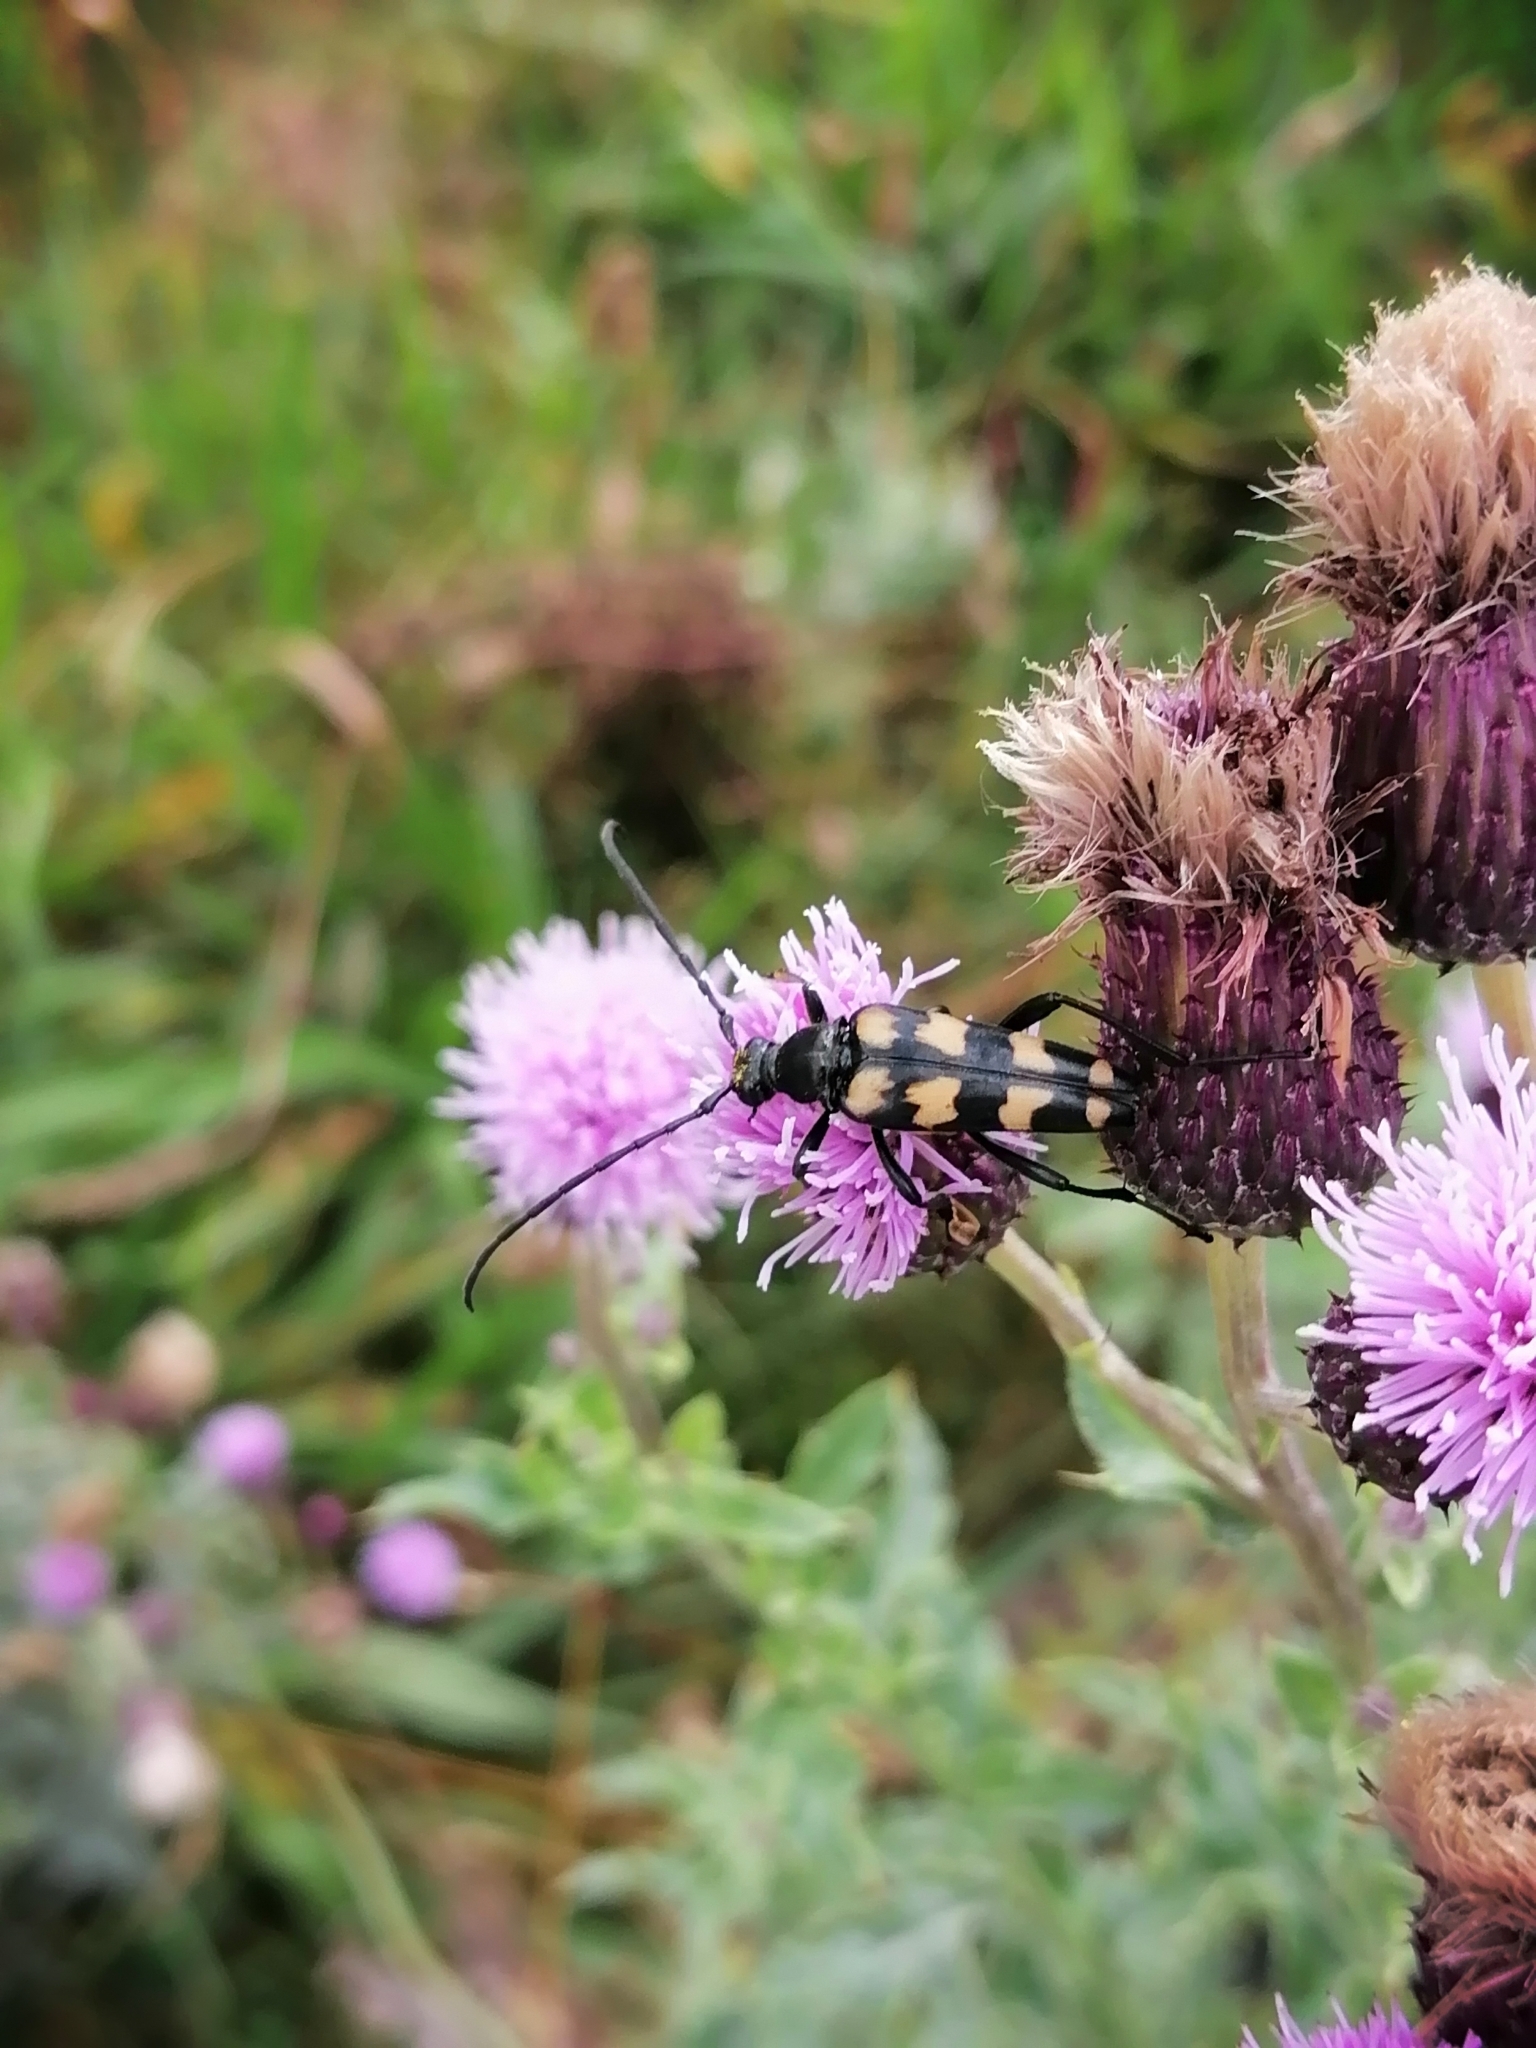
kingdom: Animalia
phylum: Arthropoda
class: Insecta
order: Coleoptera
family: Cerambycidae
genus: Leptura
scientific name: Leptura quadrifasciata
